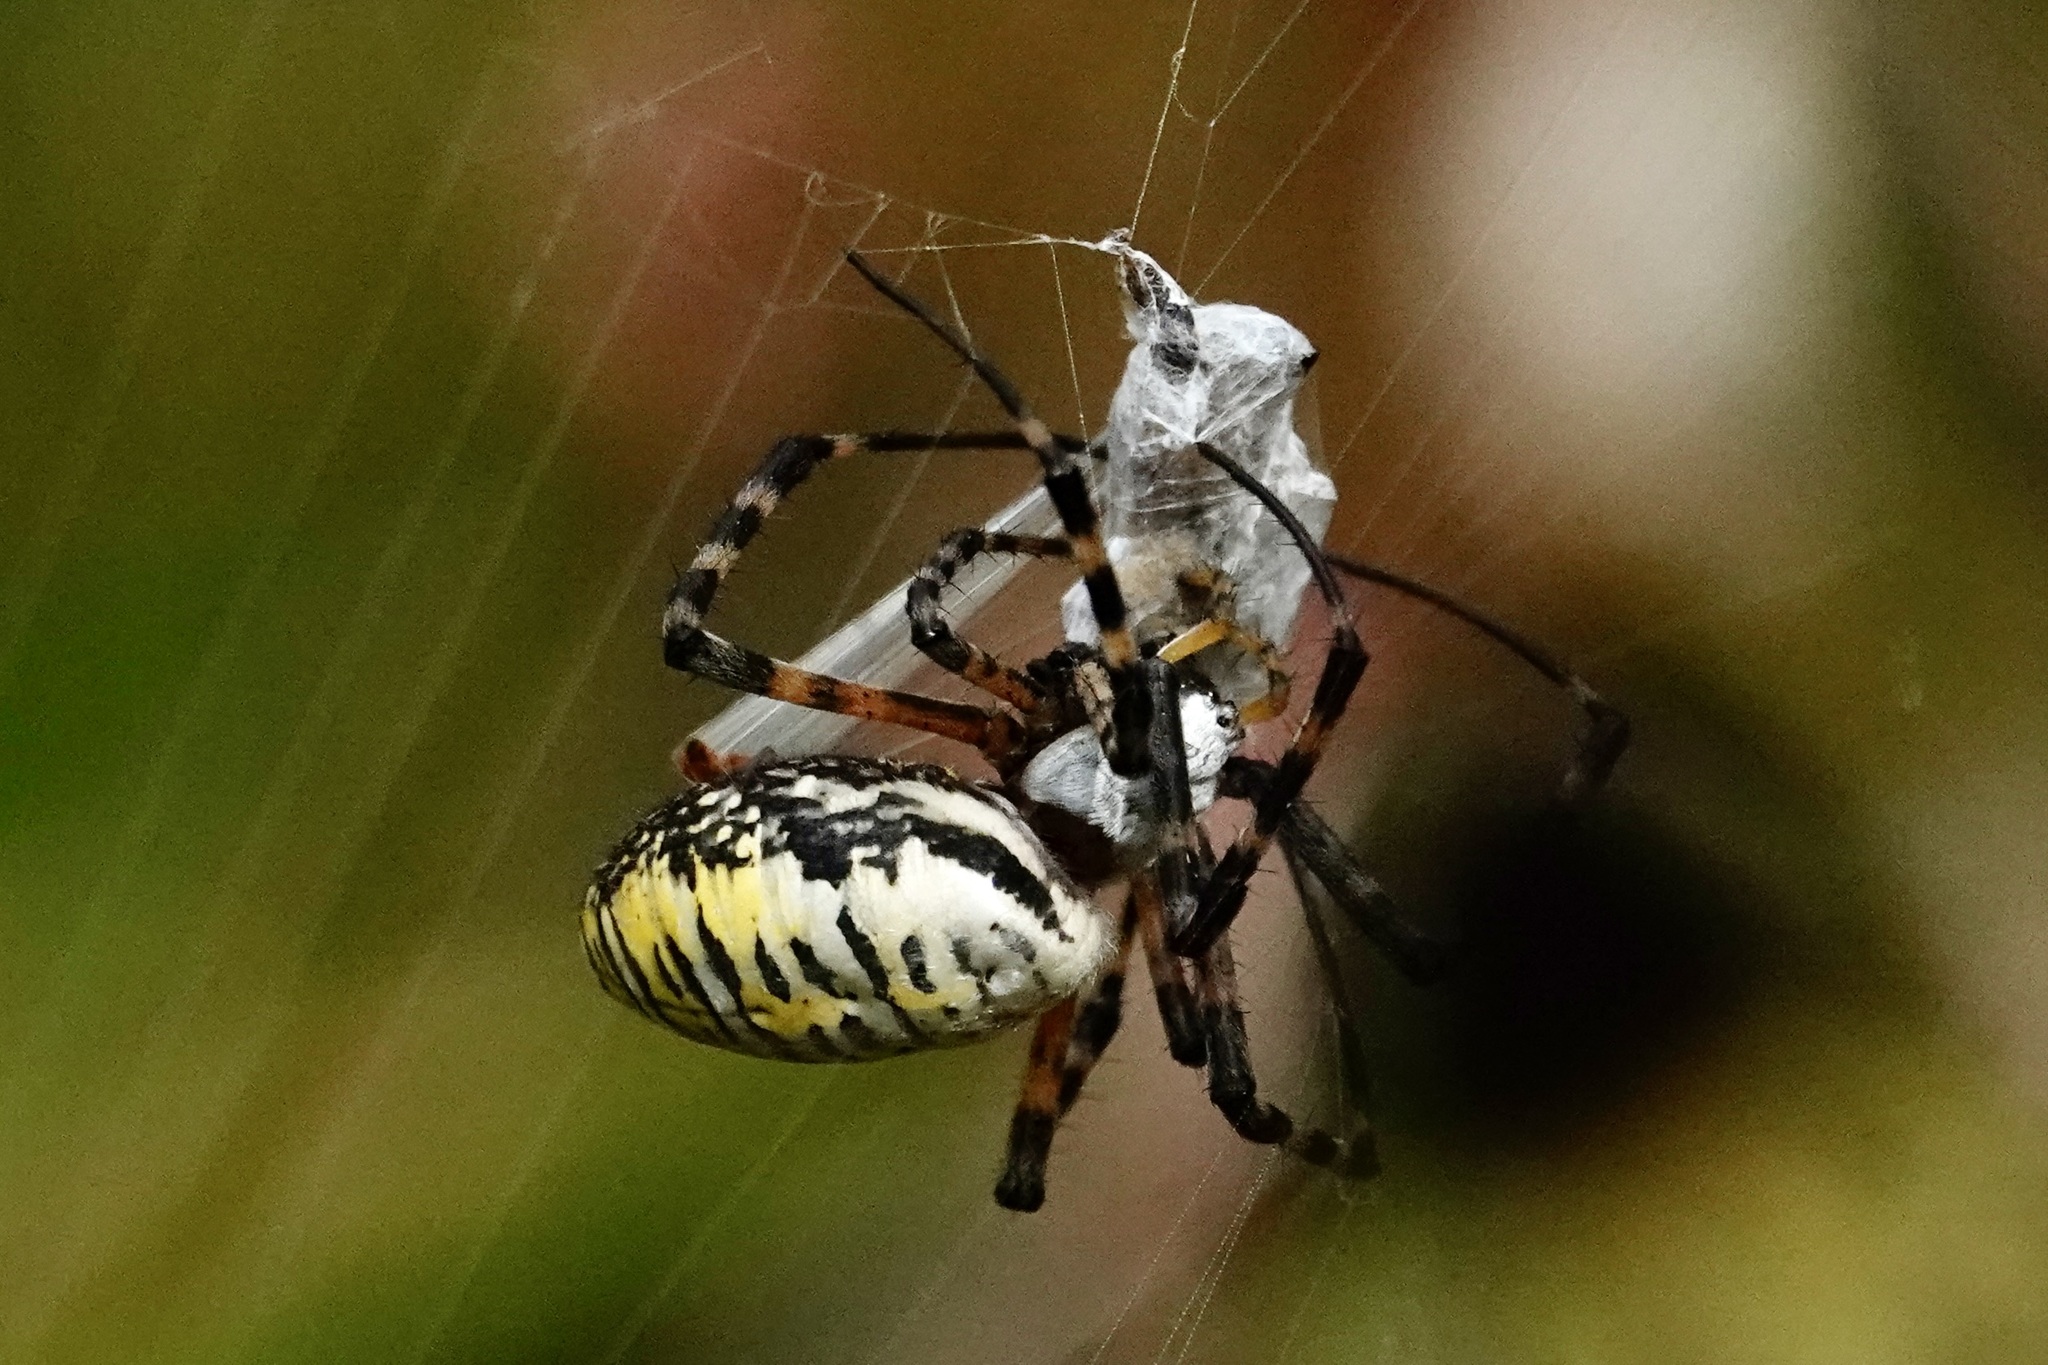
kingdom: Animalia
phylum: Arthropoda
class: Arachnida
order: Araneae
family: Araneidae
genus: Argiope
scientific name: Argiope trifasciata
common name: Banded garden spider
